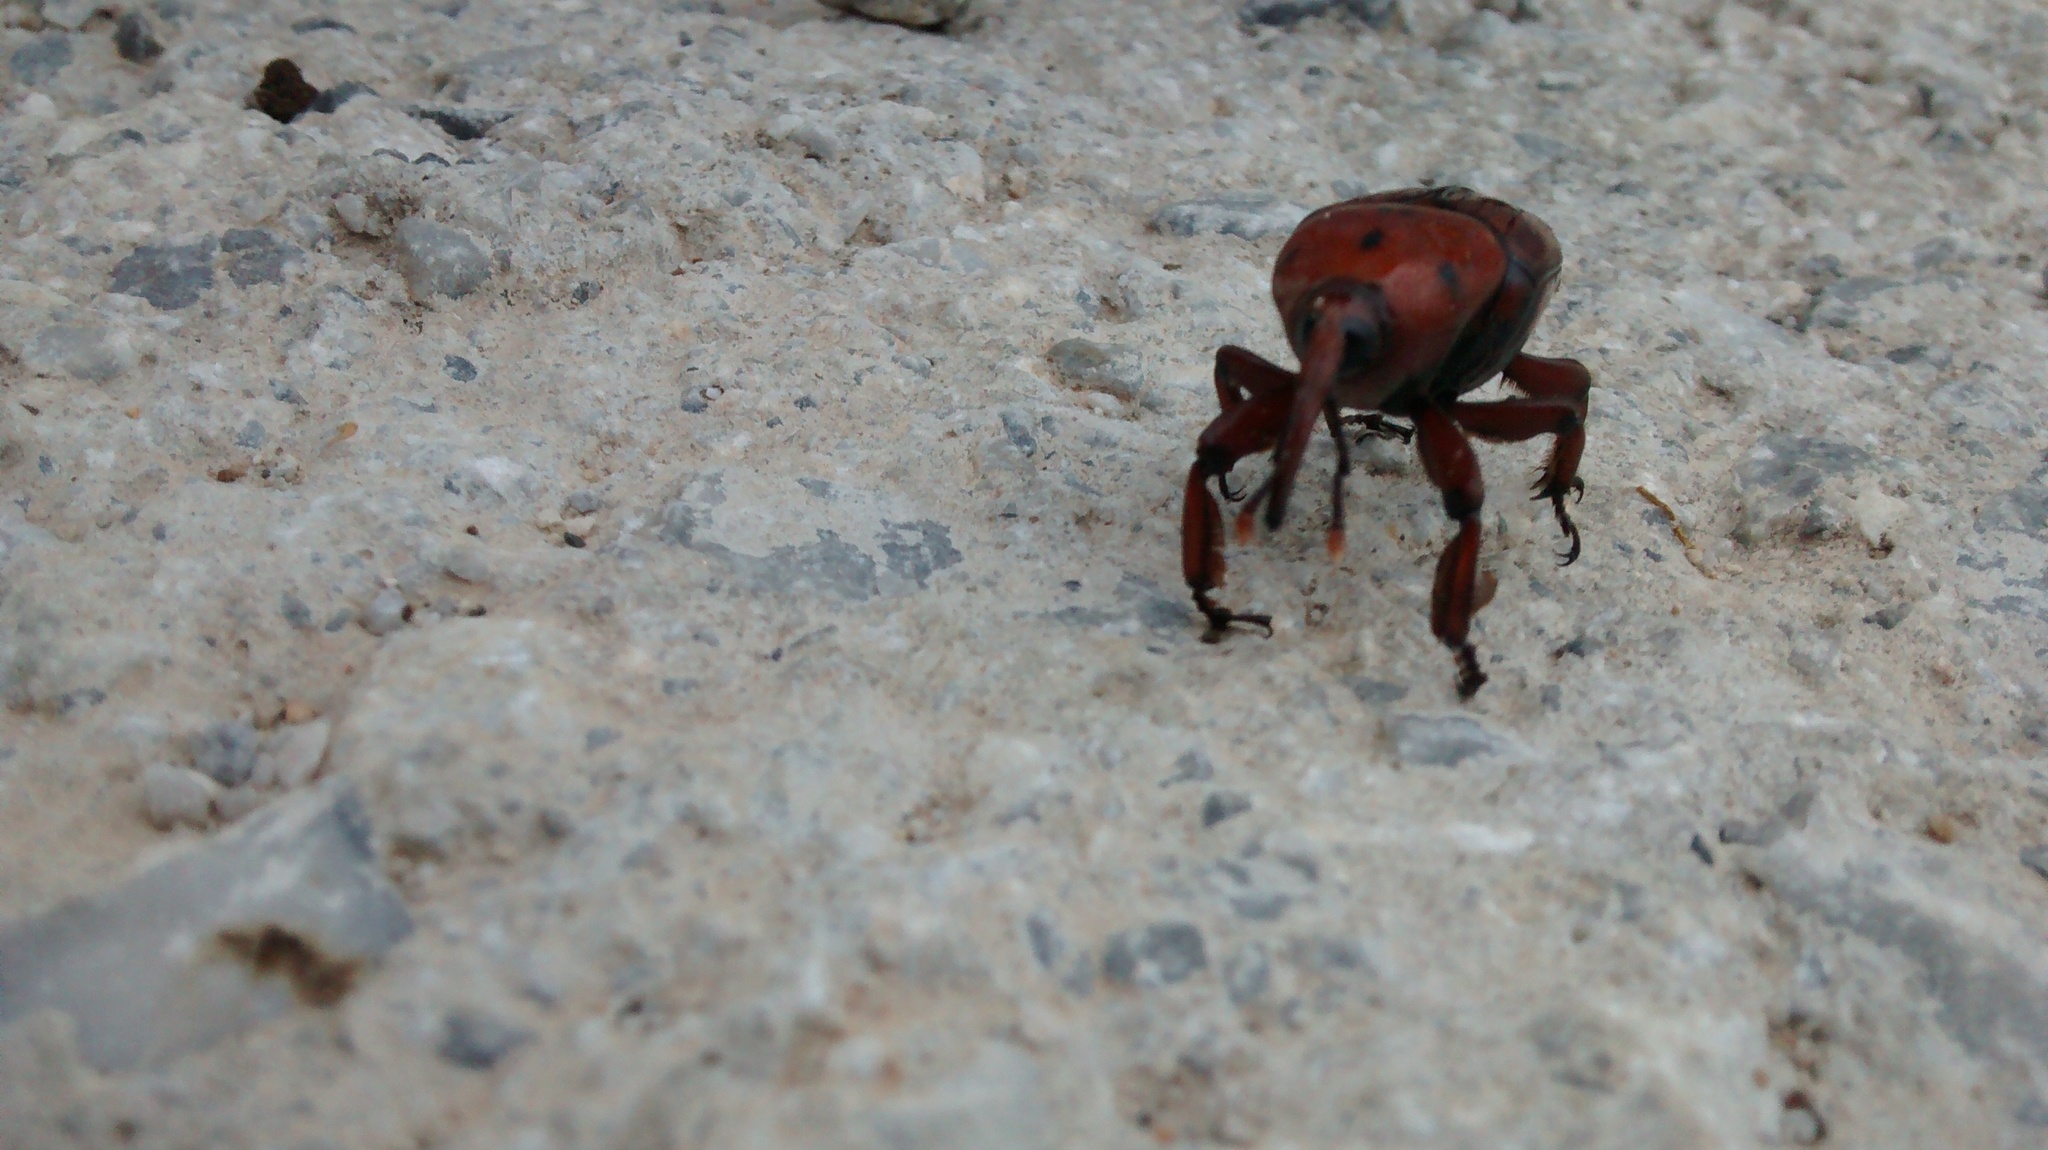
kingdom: Animalia
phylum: Arthropoda
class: Insecta
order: Coleoptera
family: Dryophthoridae
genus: Rhynchophorus
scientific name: Rhynchophorus ferrugineus
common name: Red palm weevil
